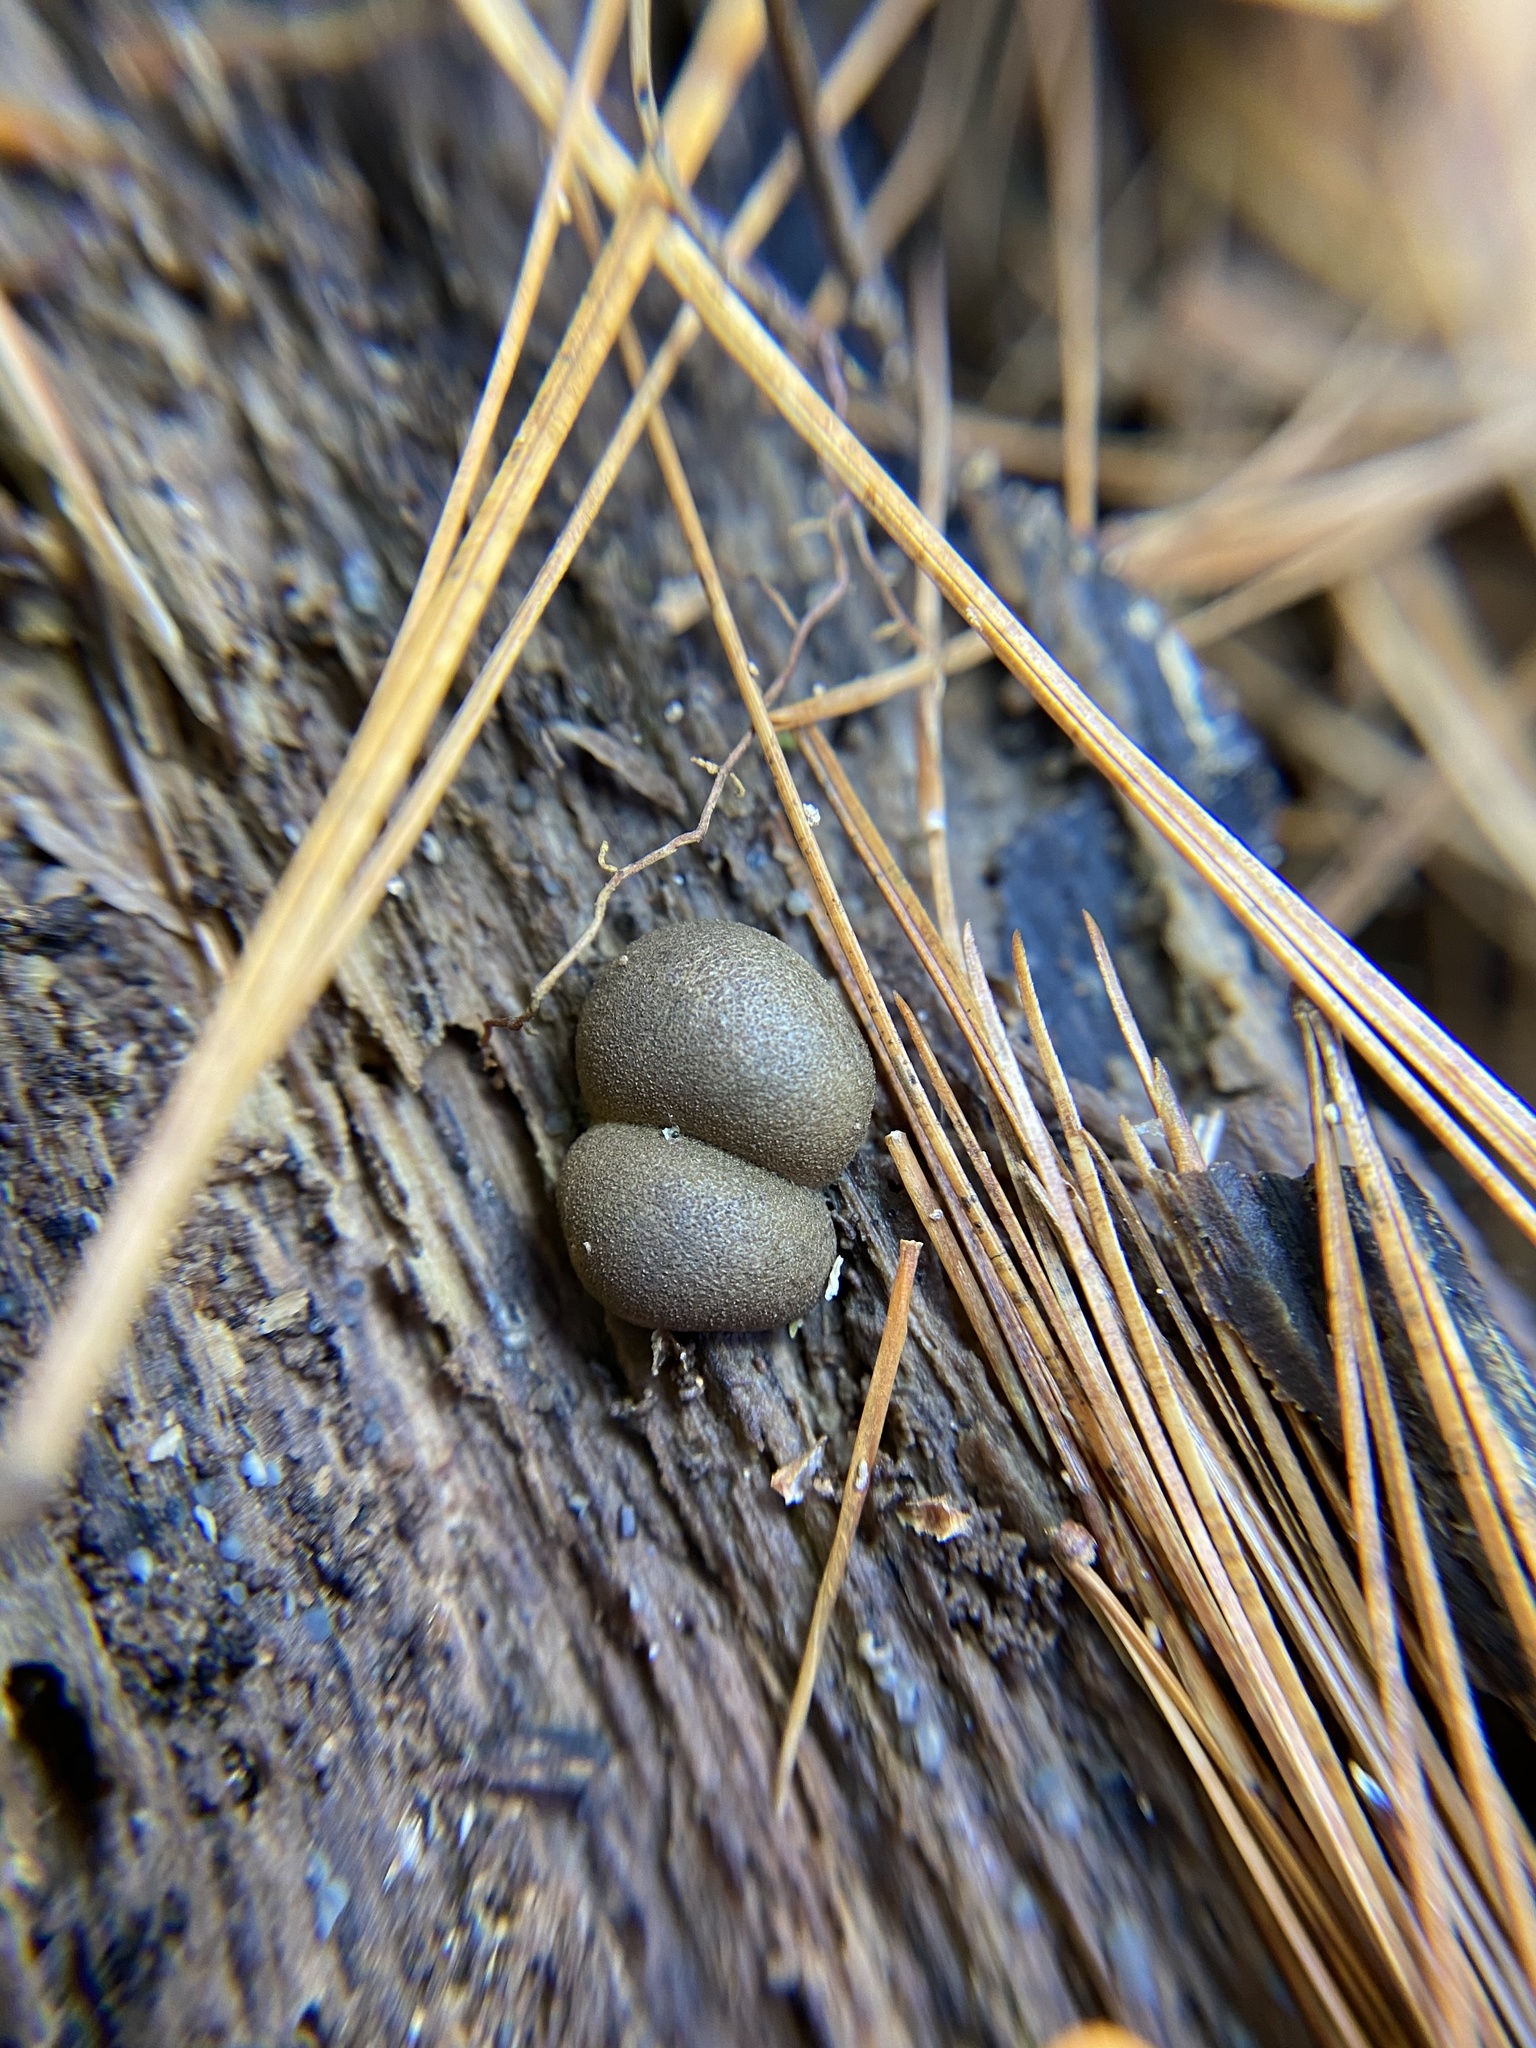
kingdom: Protozoa
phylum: Mycetozoa
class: Myxomycetes
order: Cribrariales
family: Tubiferaceae
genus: Lycogala
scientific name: Lycogala epidendrum
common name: Wolf's milk
